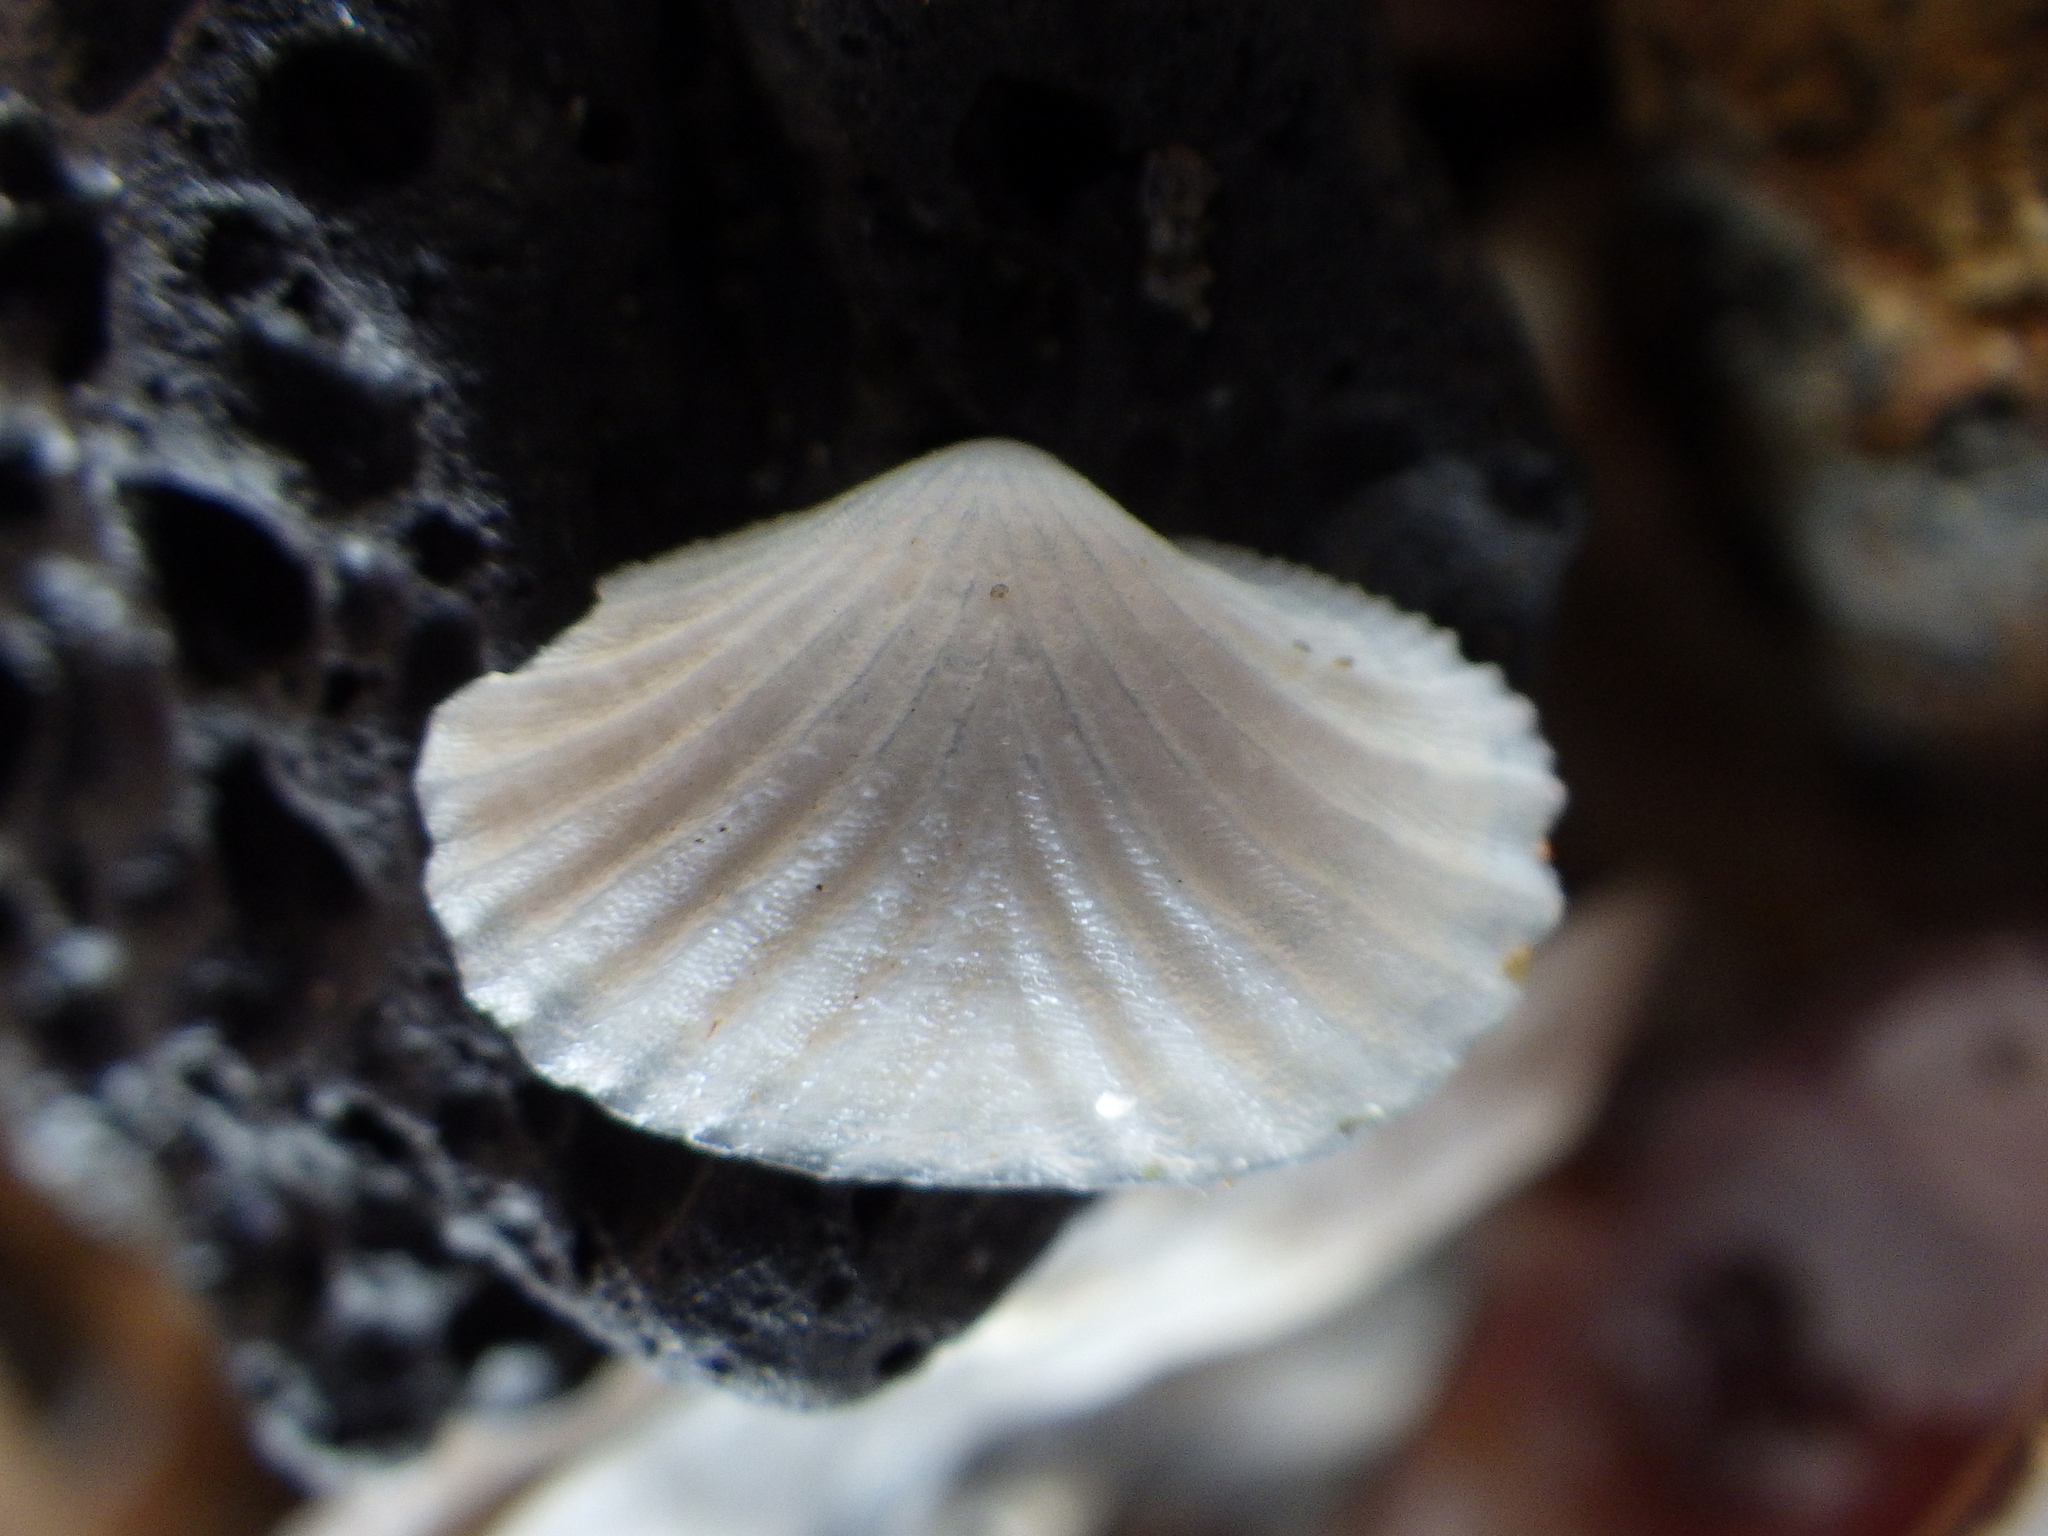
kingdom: Animalia
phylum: Mollusca
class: Bivalvia
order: Galeommatida
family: Lasaeidae
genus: Myllita
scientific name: Myllita stowei
